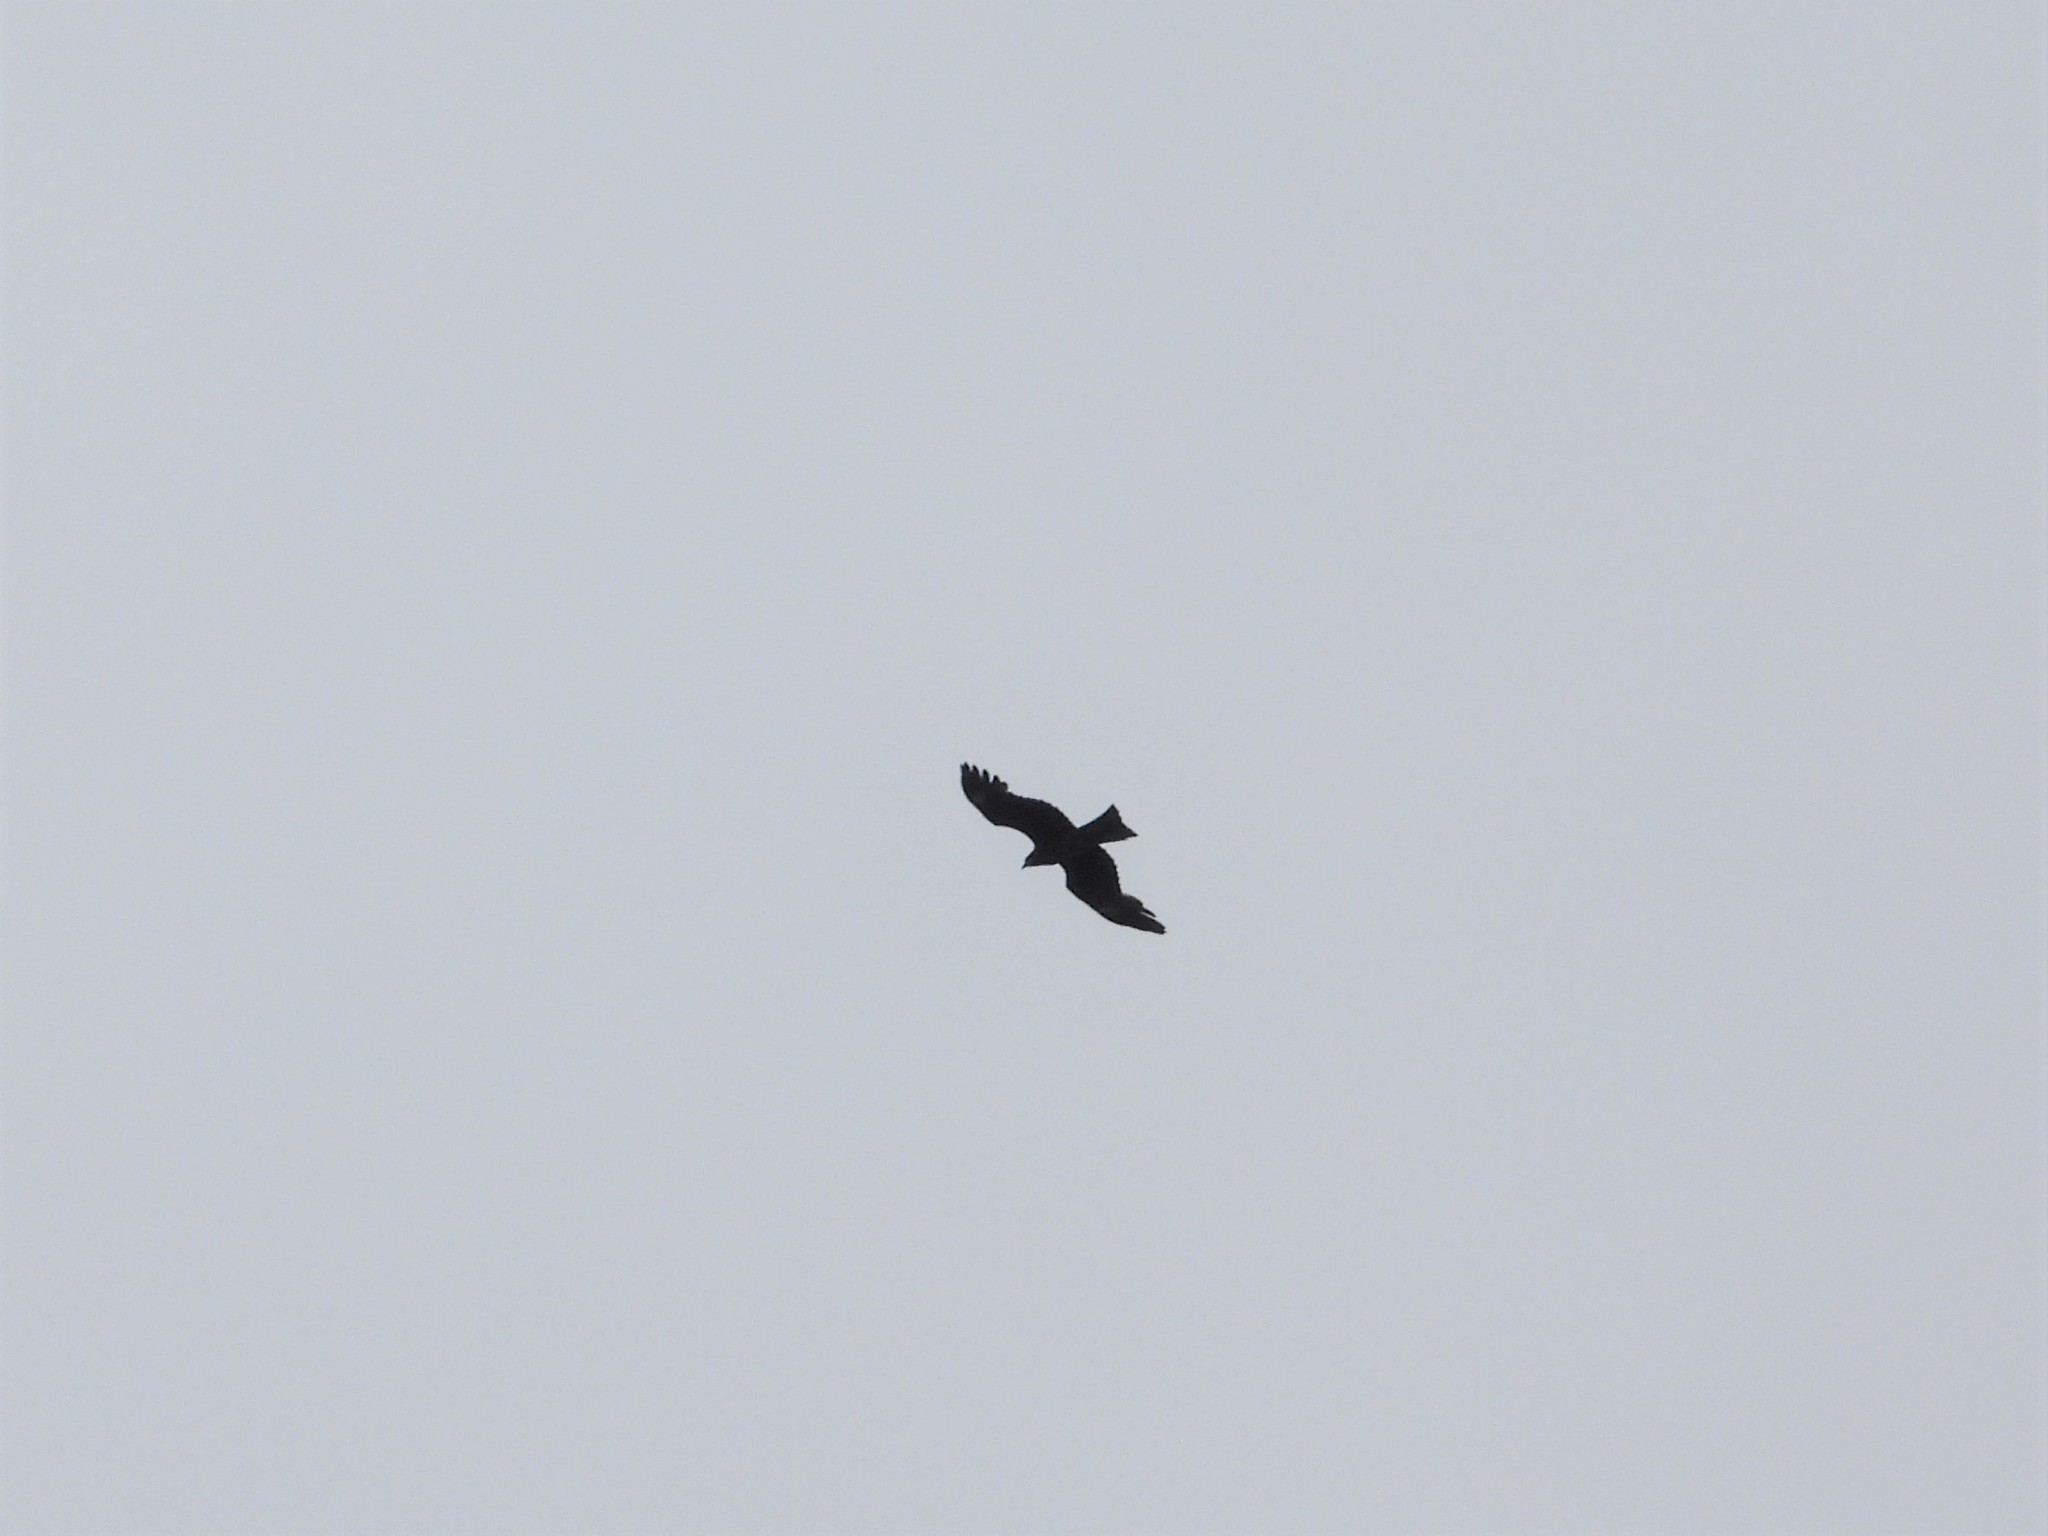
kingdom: Animalia
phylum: Chordata
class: Aves
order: Accipitriformes
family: Accipitridae
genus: Milvus
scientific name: Milvus migrans
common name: Black kite
